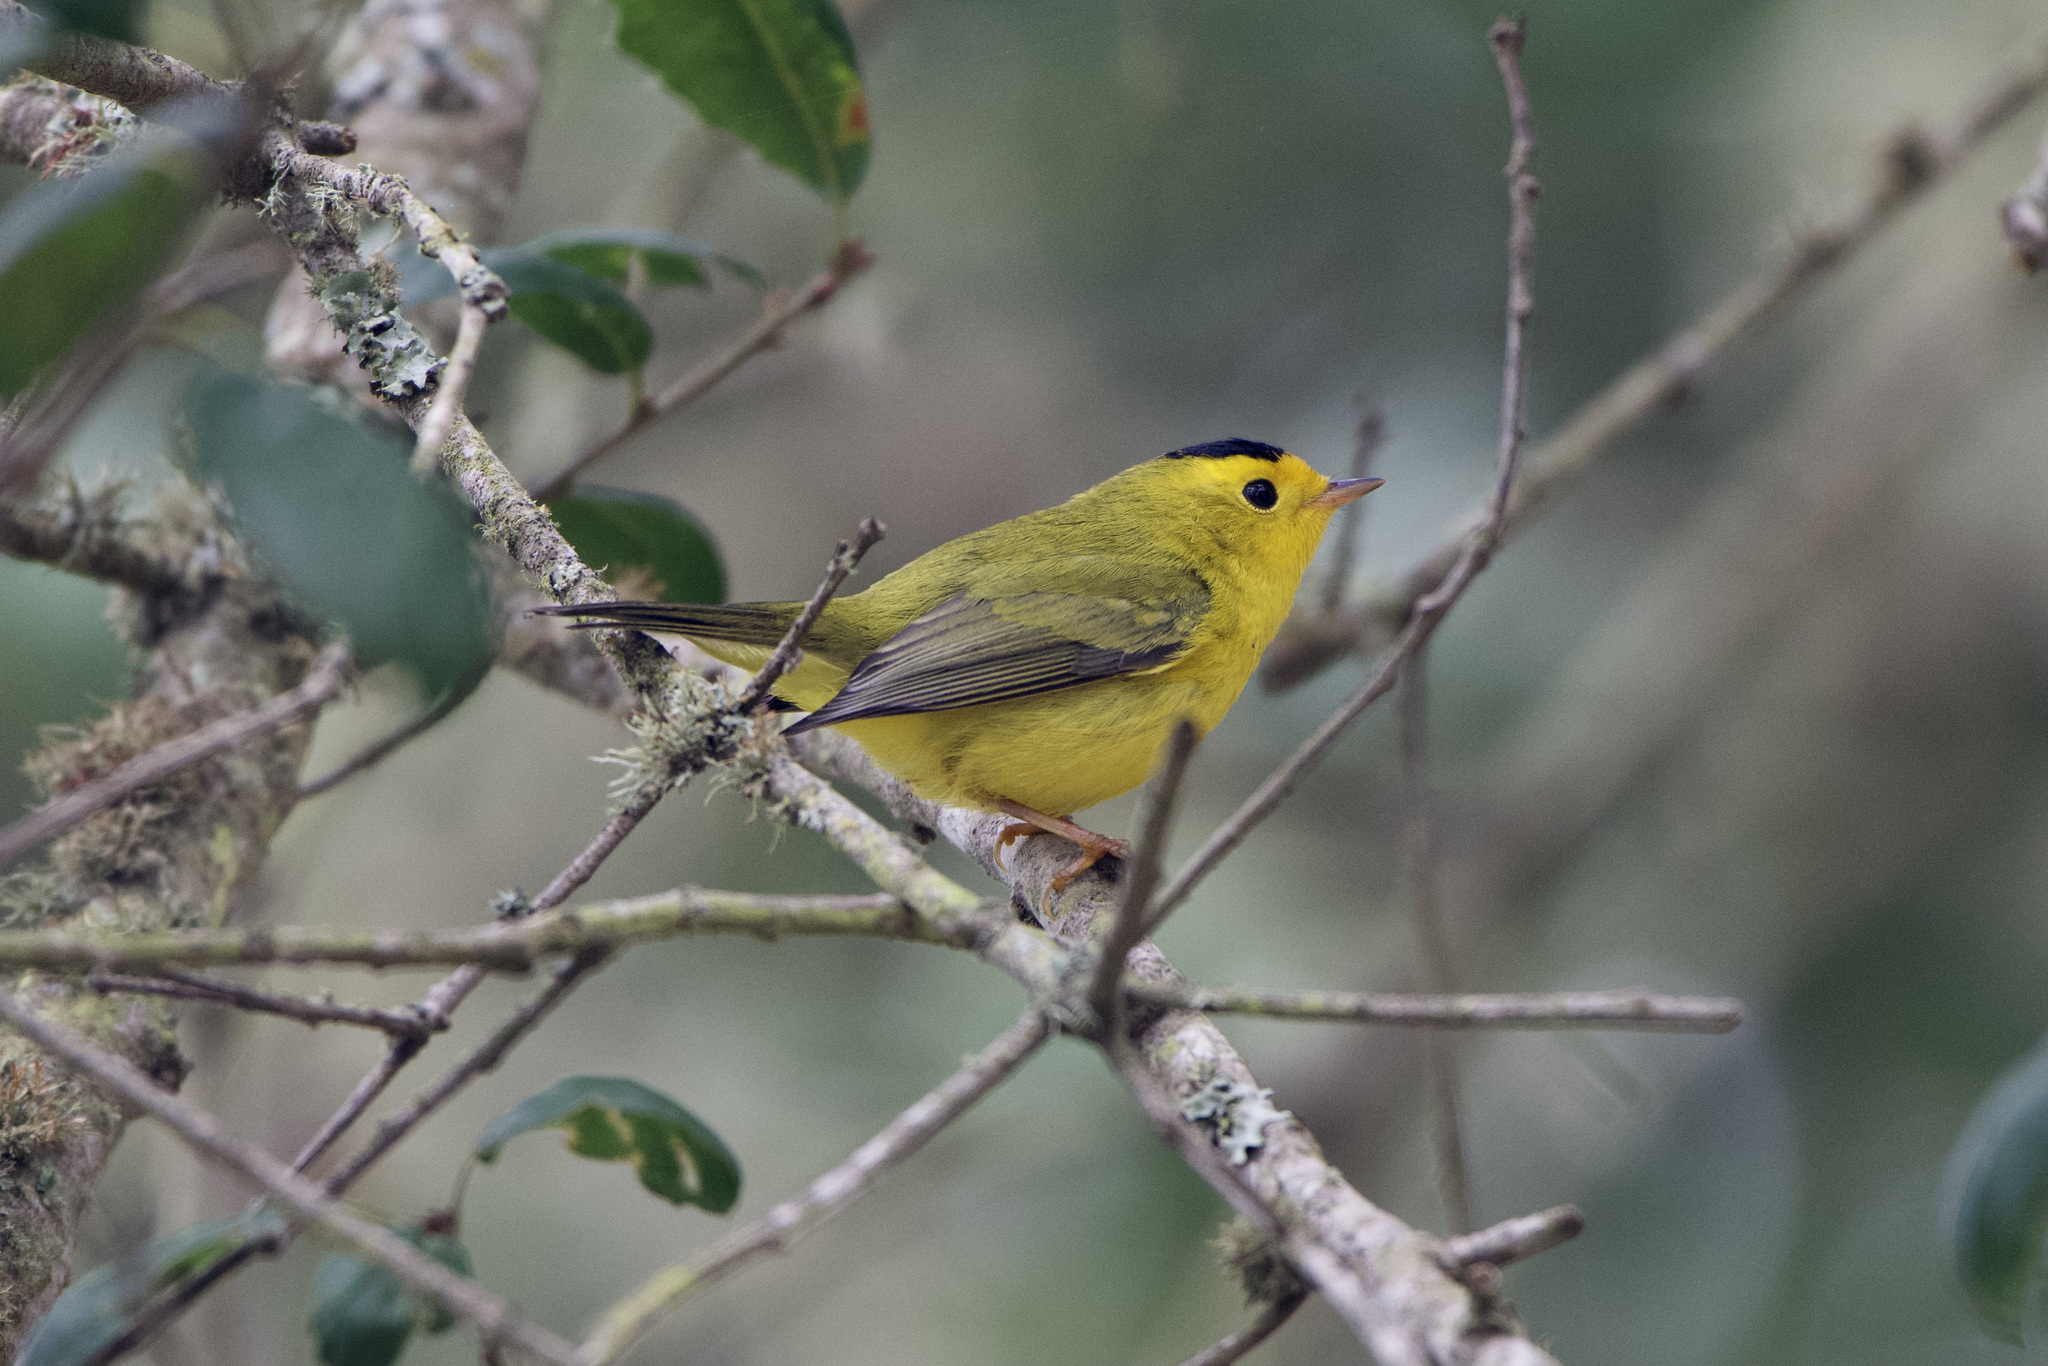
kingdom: Animalia
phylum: Chordata
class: Aves
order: Passeriformes
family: Parulidae
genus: Cardellina
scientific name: Cardellina pusilla
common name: Wilson's warbler
